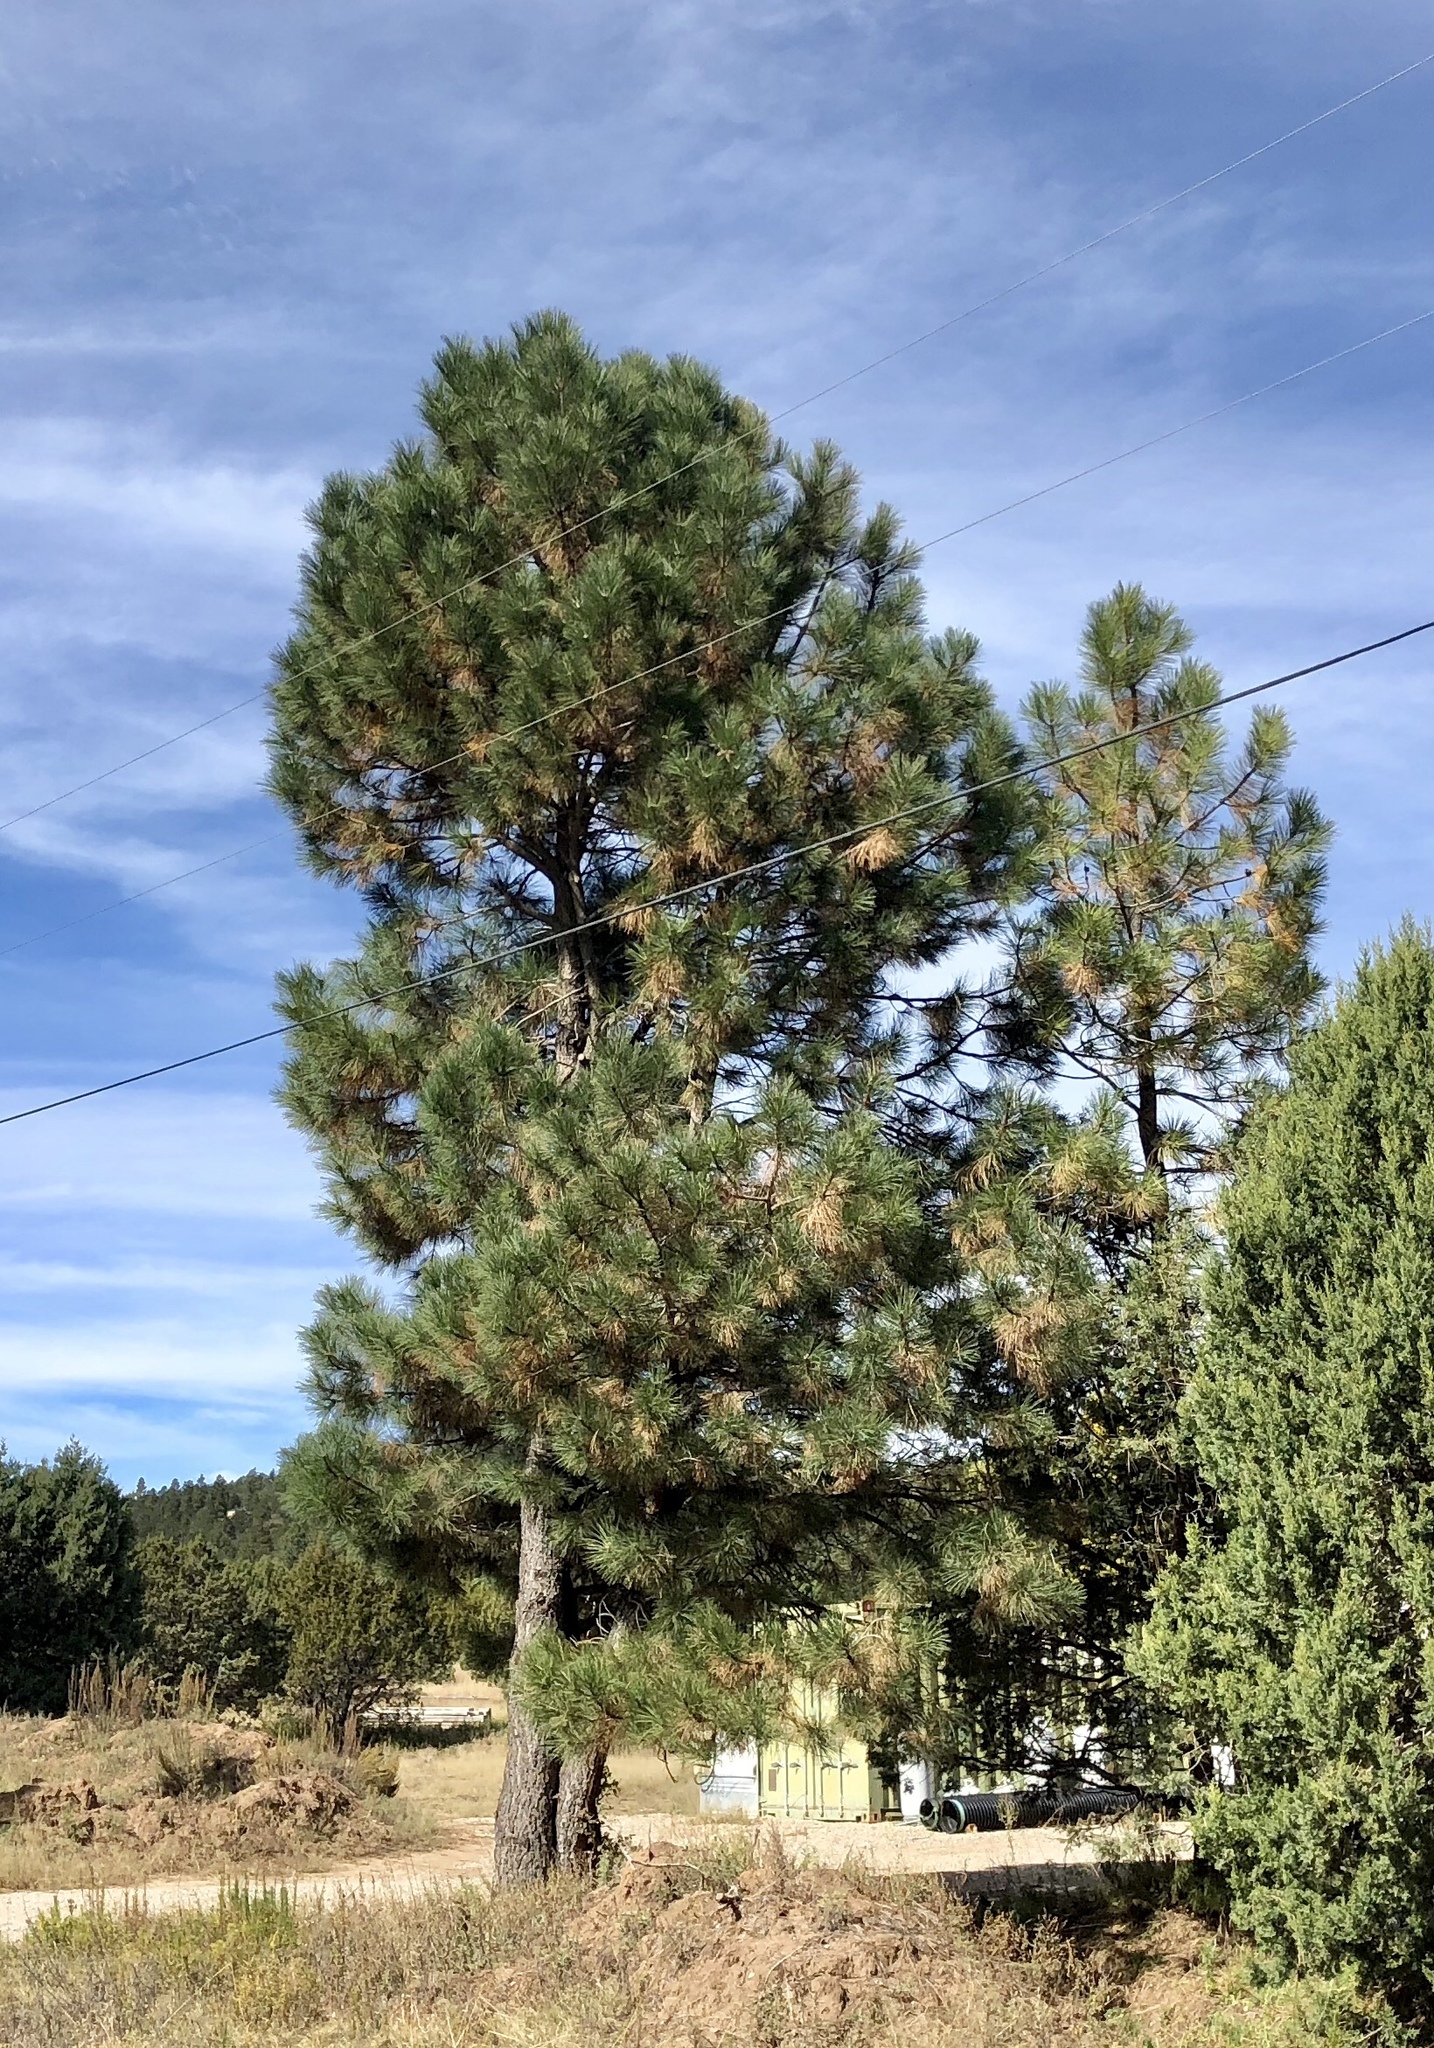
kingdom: Plantae
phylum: Tracheophyta
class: Pinopsida
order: Pinales
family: Pinaceae
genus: Pinus
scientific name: Pinus ponderosa
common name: Western yellow-pine
